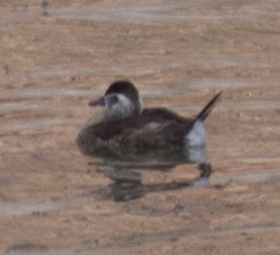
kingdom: Animalia
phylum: Chordata
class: Aves
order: Anseriformes
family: Anatidae
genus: Oxyura
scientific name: Oxyura jamaicensis
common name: Ruddy duck
